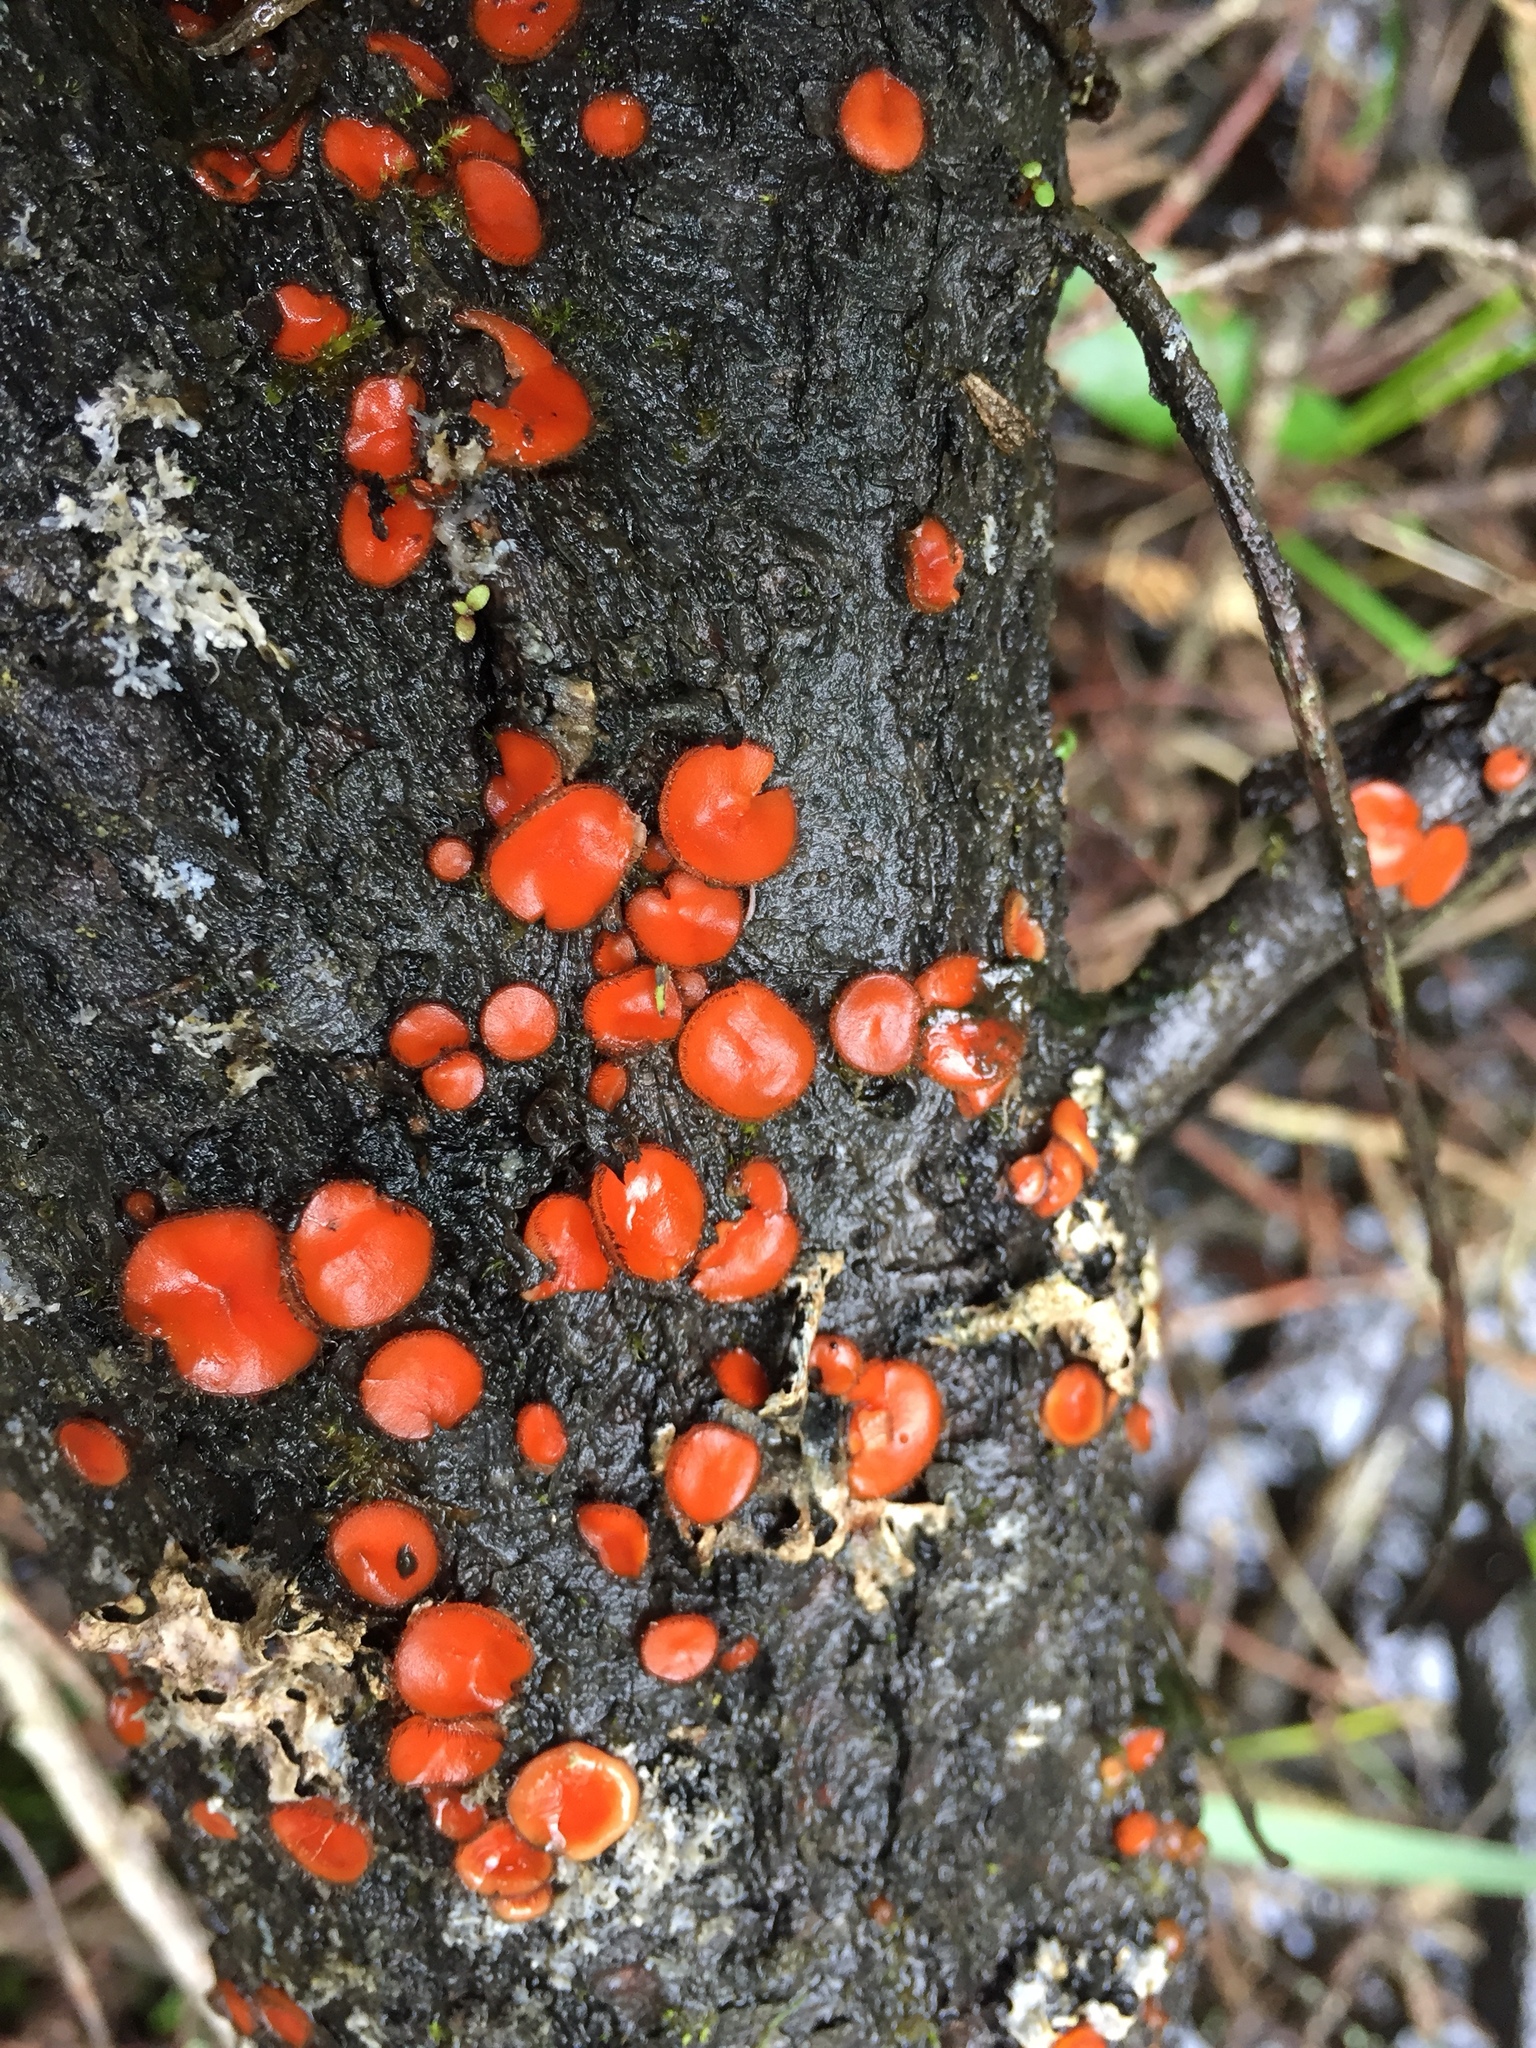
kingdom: Fungi
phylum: Ascomycota
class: Pezizomycetes
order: Pezizales
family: Pyronemataceae
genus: Scutellinia
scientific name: Scutellinia
